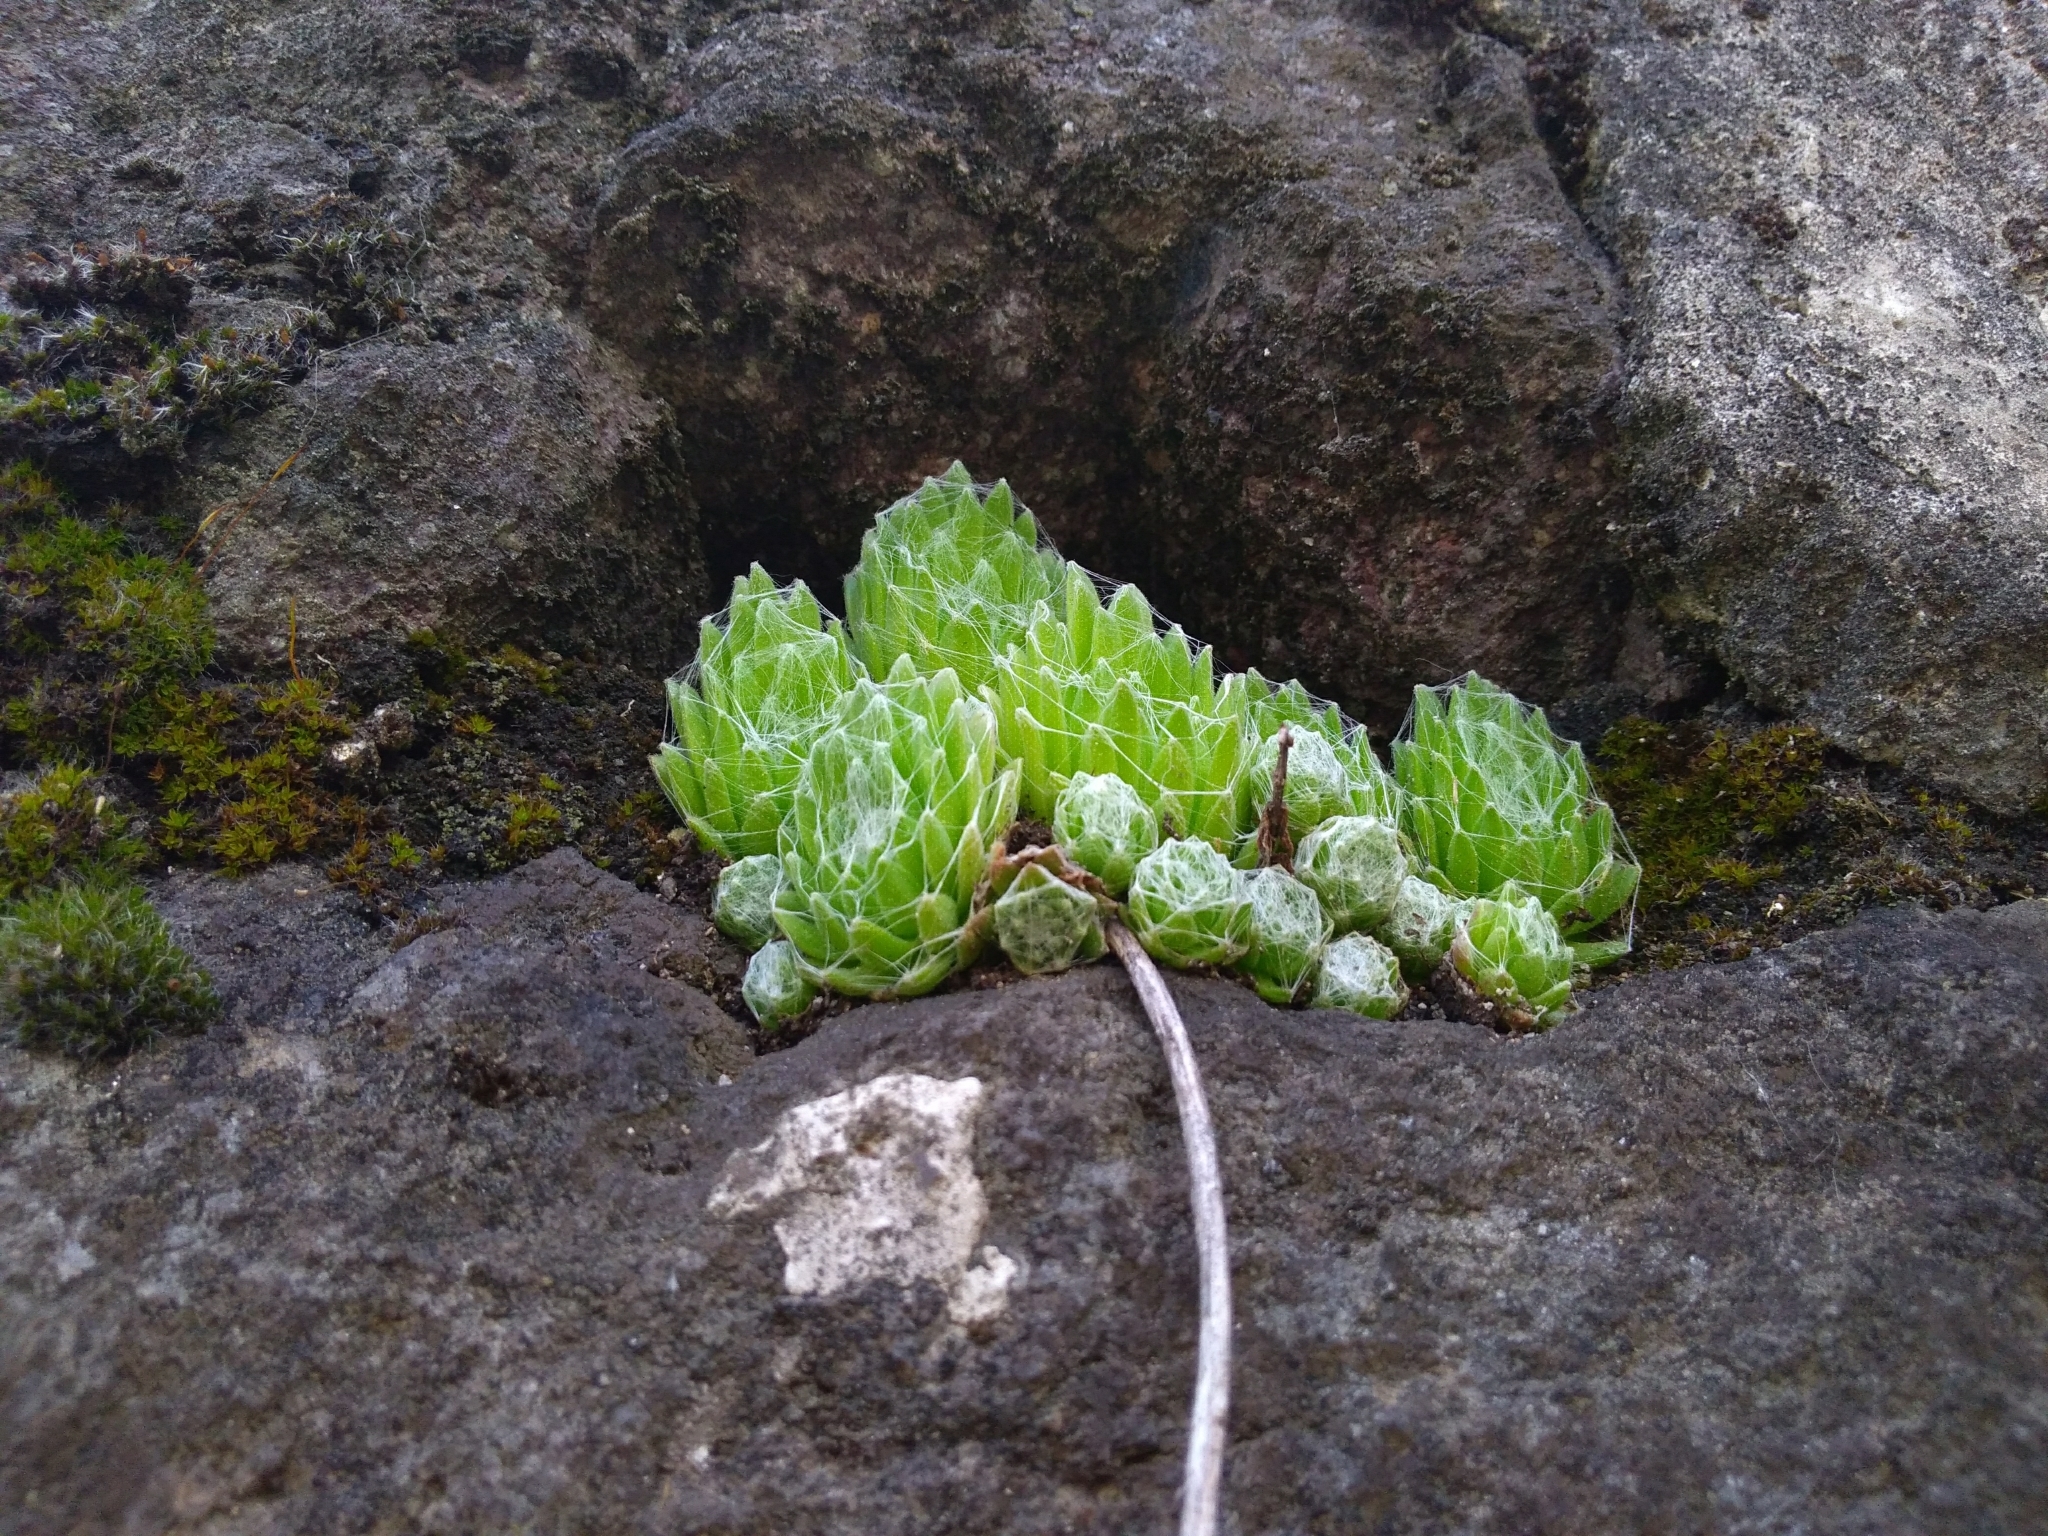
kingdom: Plantae
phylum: Tracheophyta
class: Magnoliopsida
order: Saxifragales
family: Crassulaceae
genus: Sempervivum
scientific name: Sempervivum arachnoideum
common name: Cobweb house-leek
